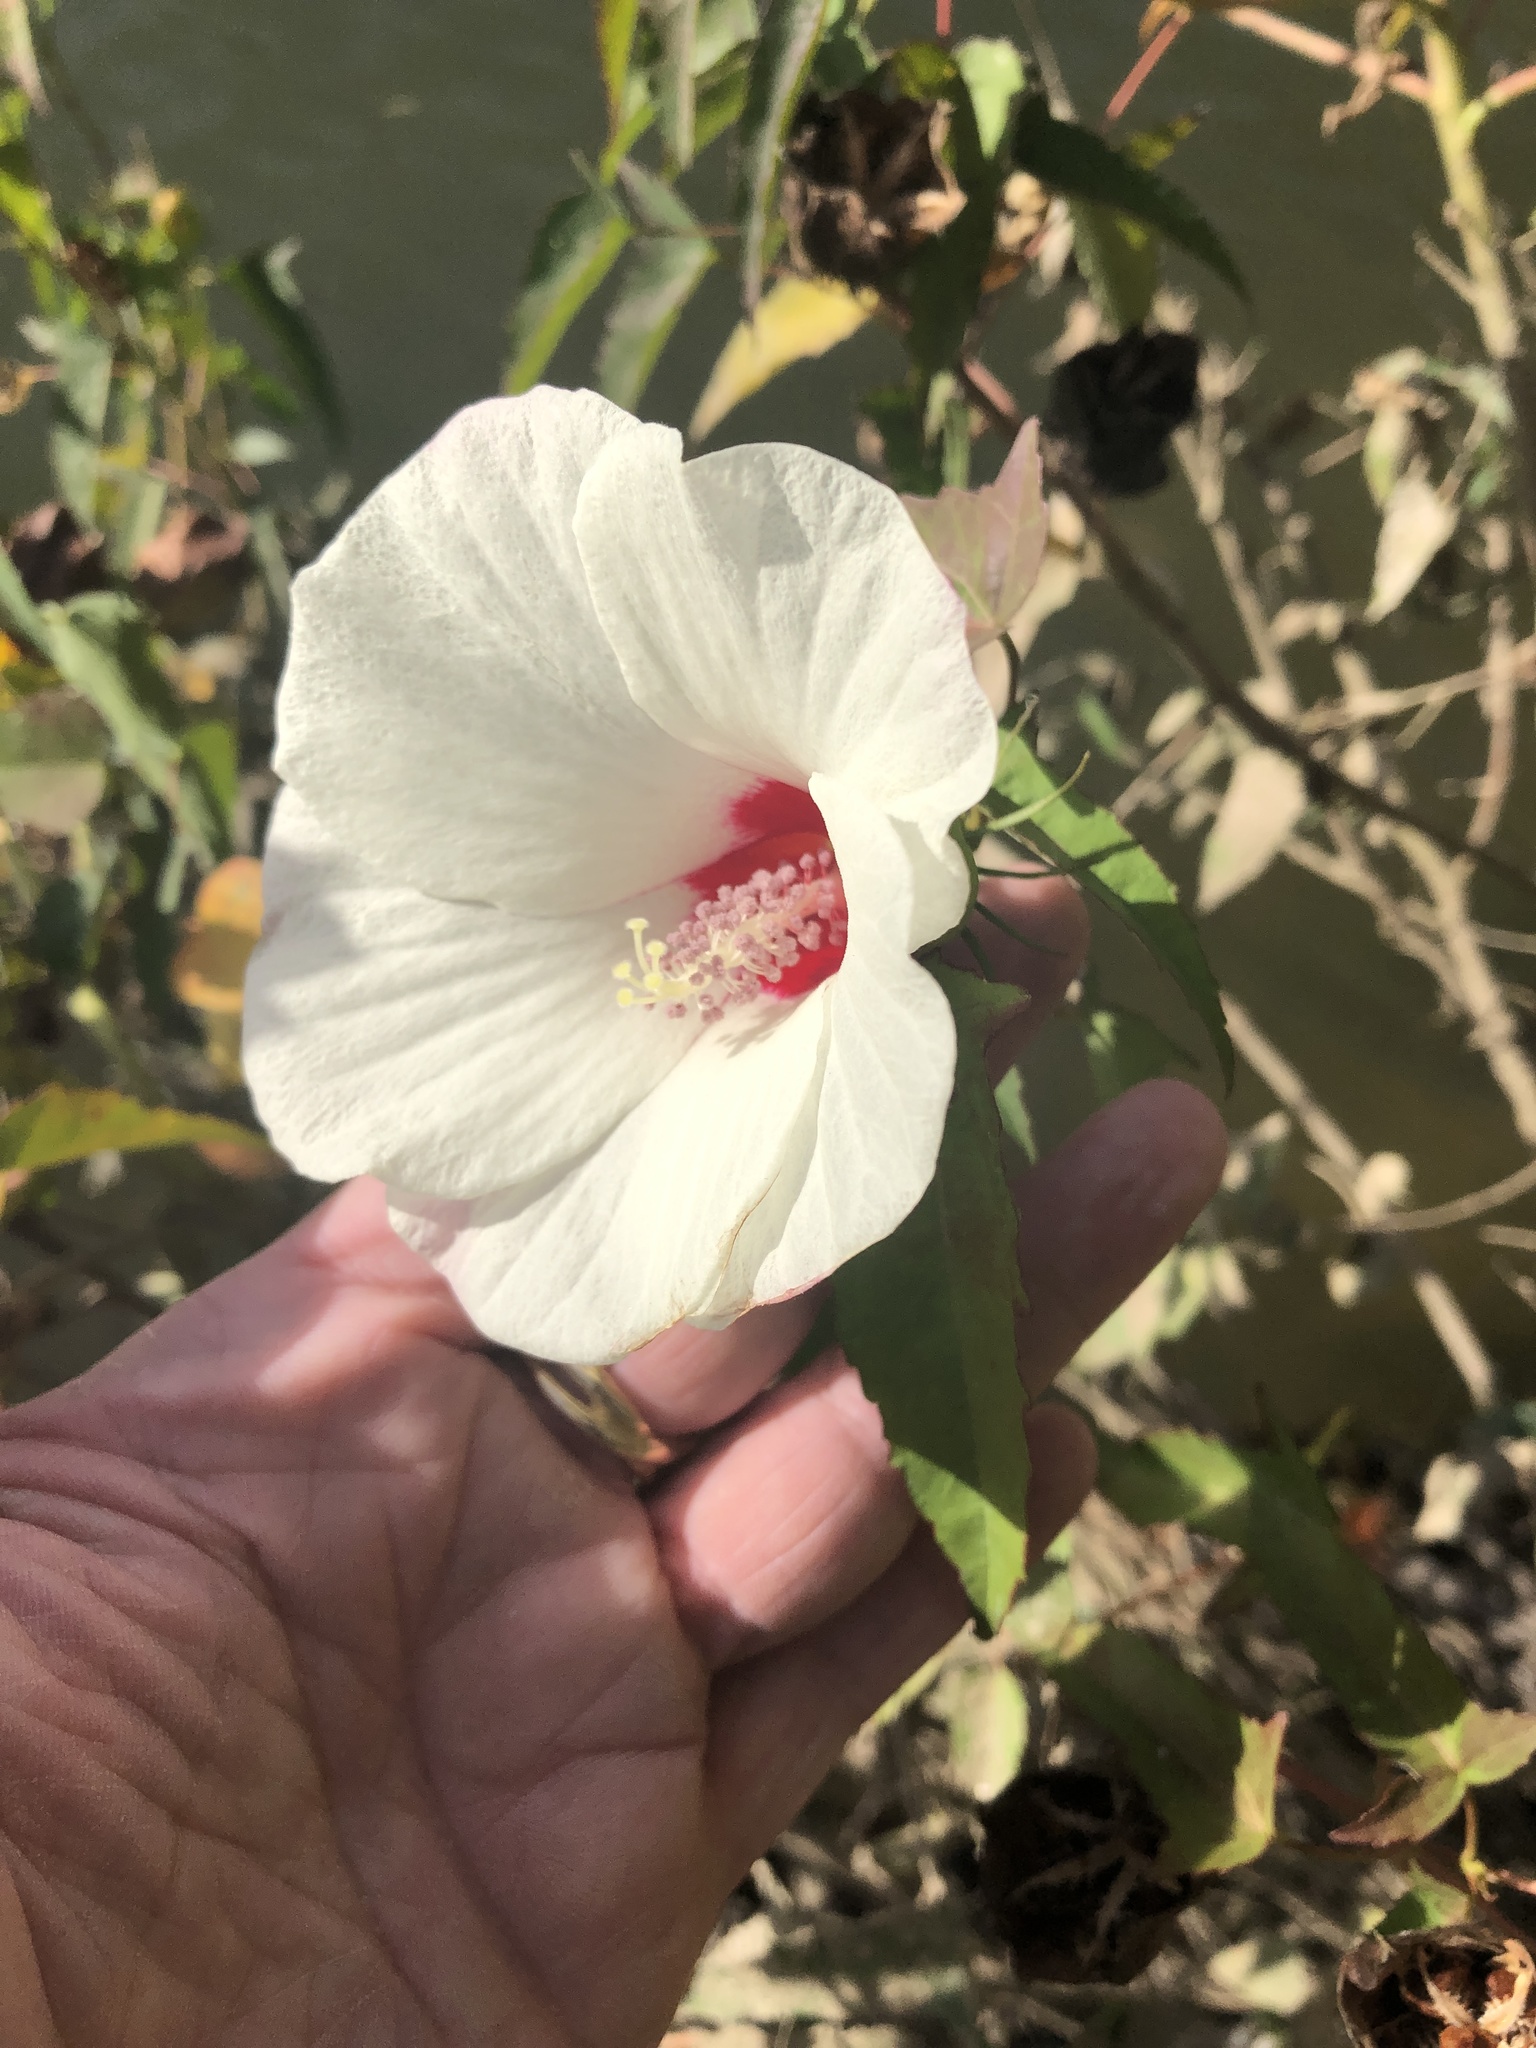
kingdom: Plantae
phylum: Tracheophyta
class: Magnoliopsida
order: Malvales
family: Malvaceae
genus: Hibiscus
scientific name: Hibiscus laevis
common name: Scarlet rose-mallow
